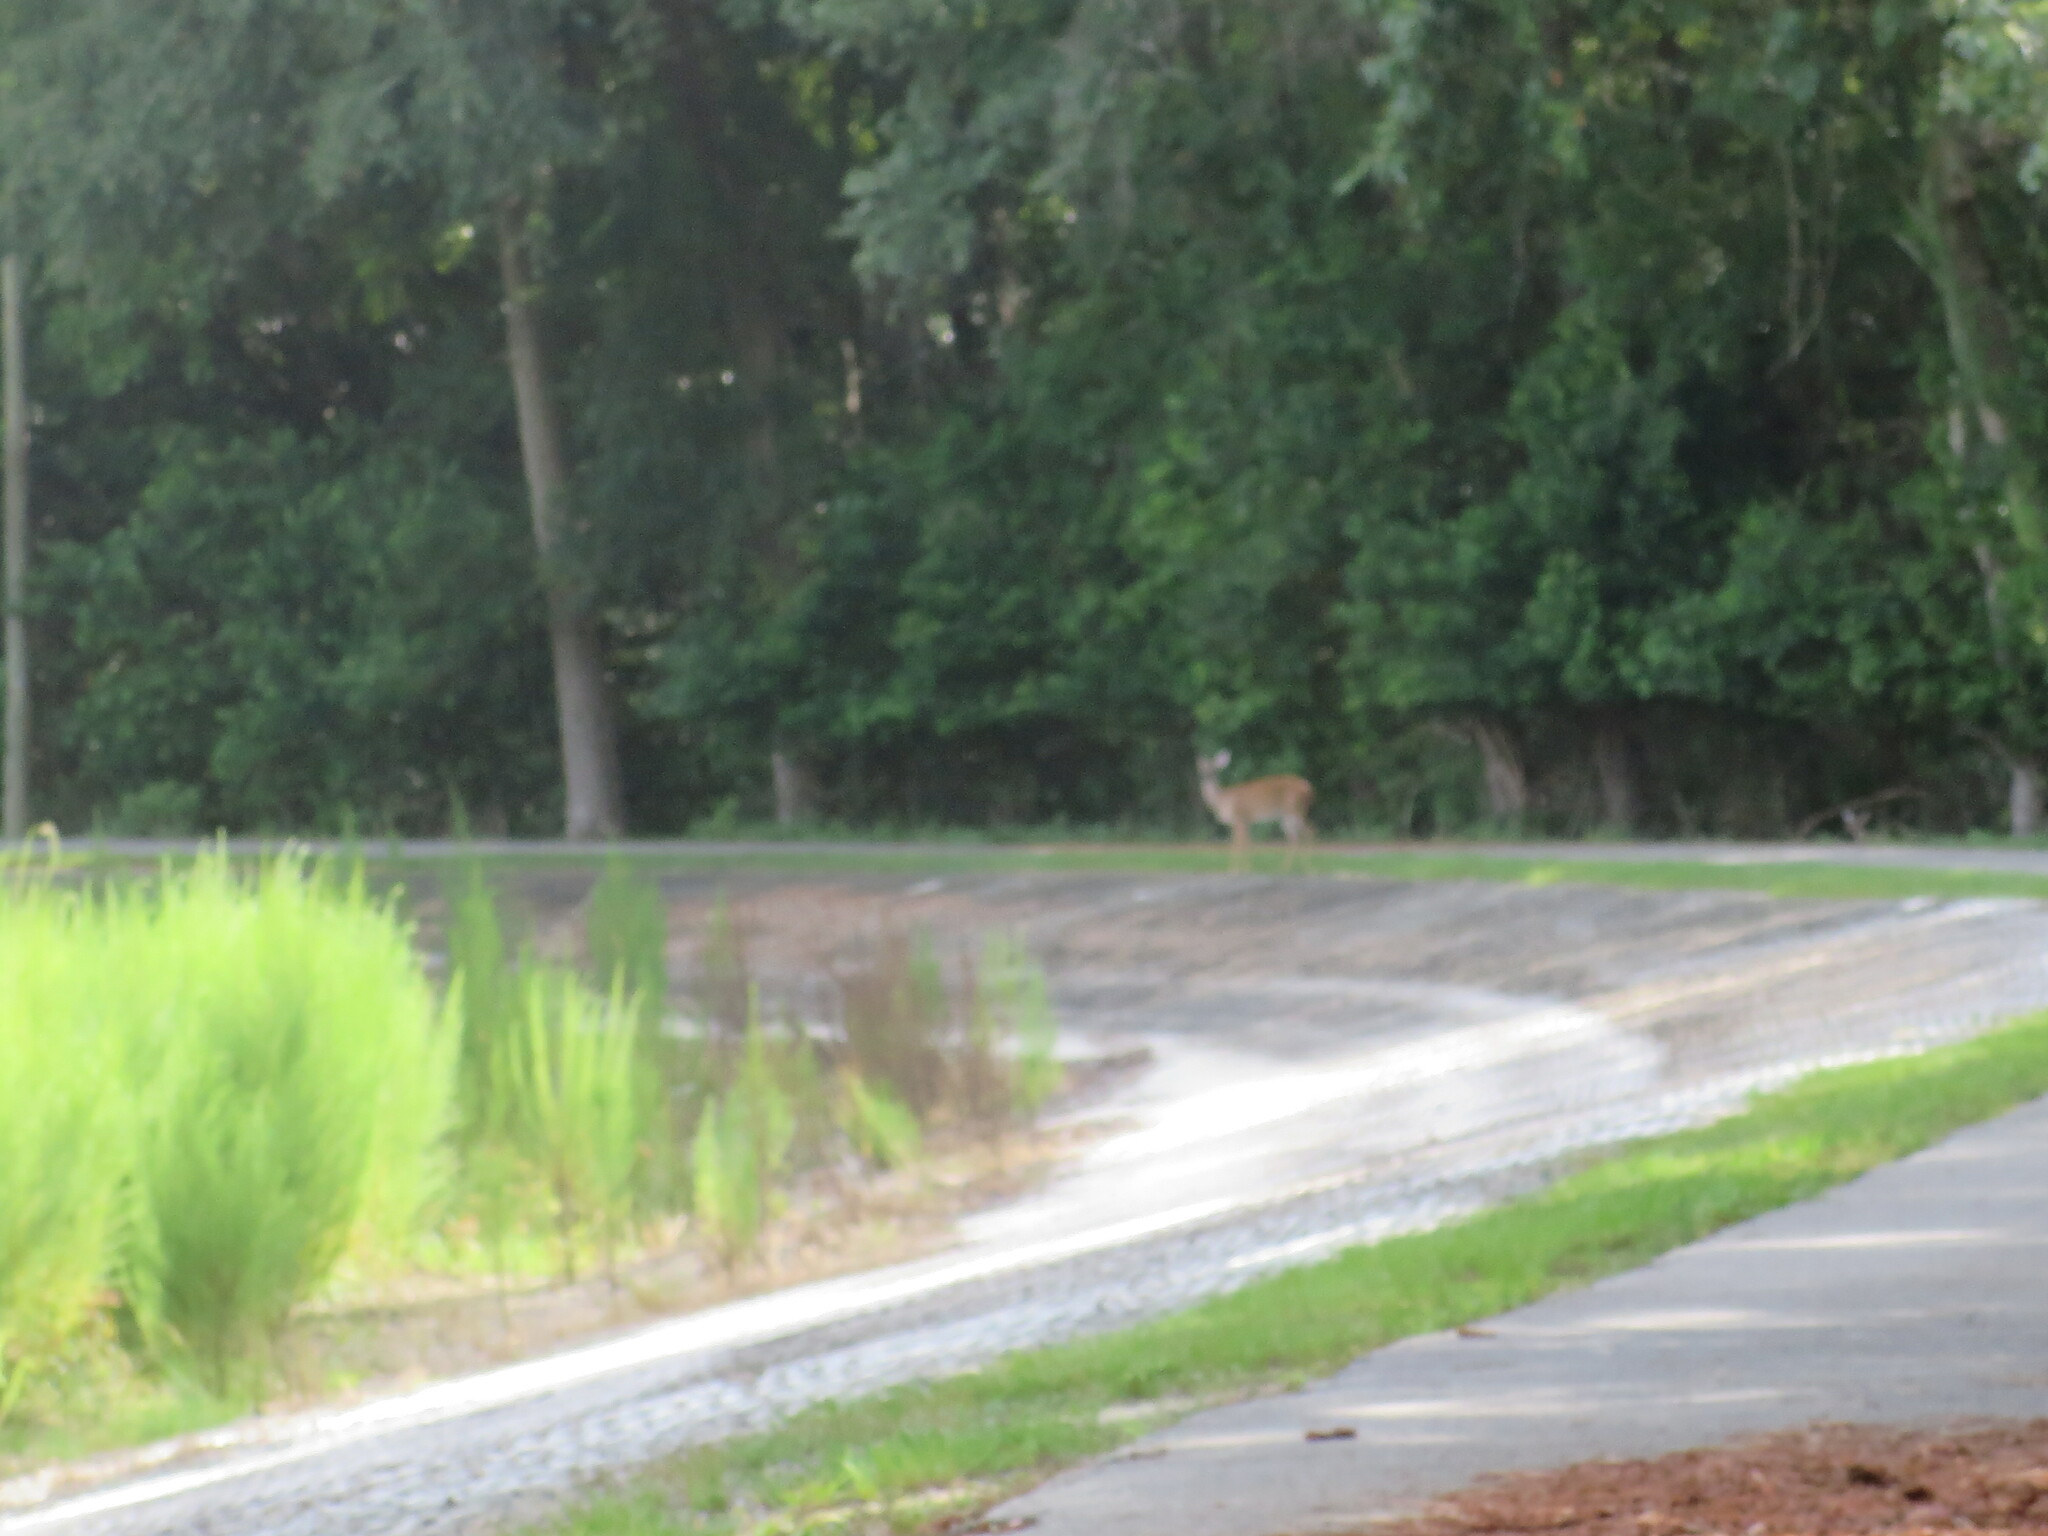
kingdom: Animalia
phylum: Chordata
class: Mammalia
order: Artiodactyla
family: Cervidae
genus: Odocoileus
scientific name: Odocoileus virginianus
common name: White-tailed deer
